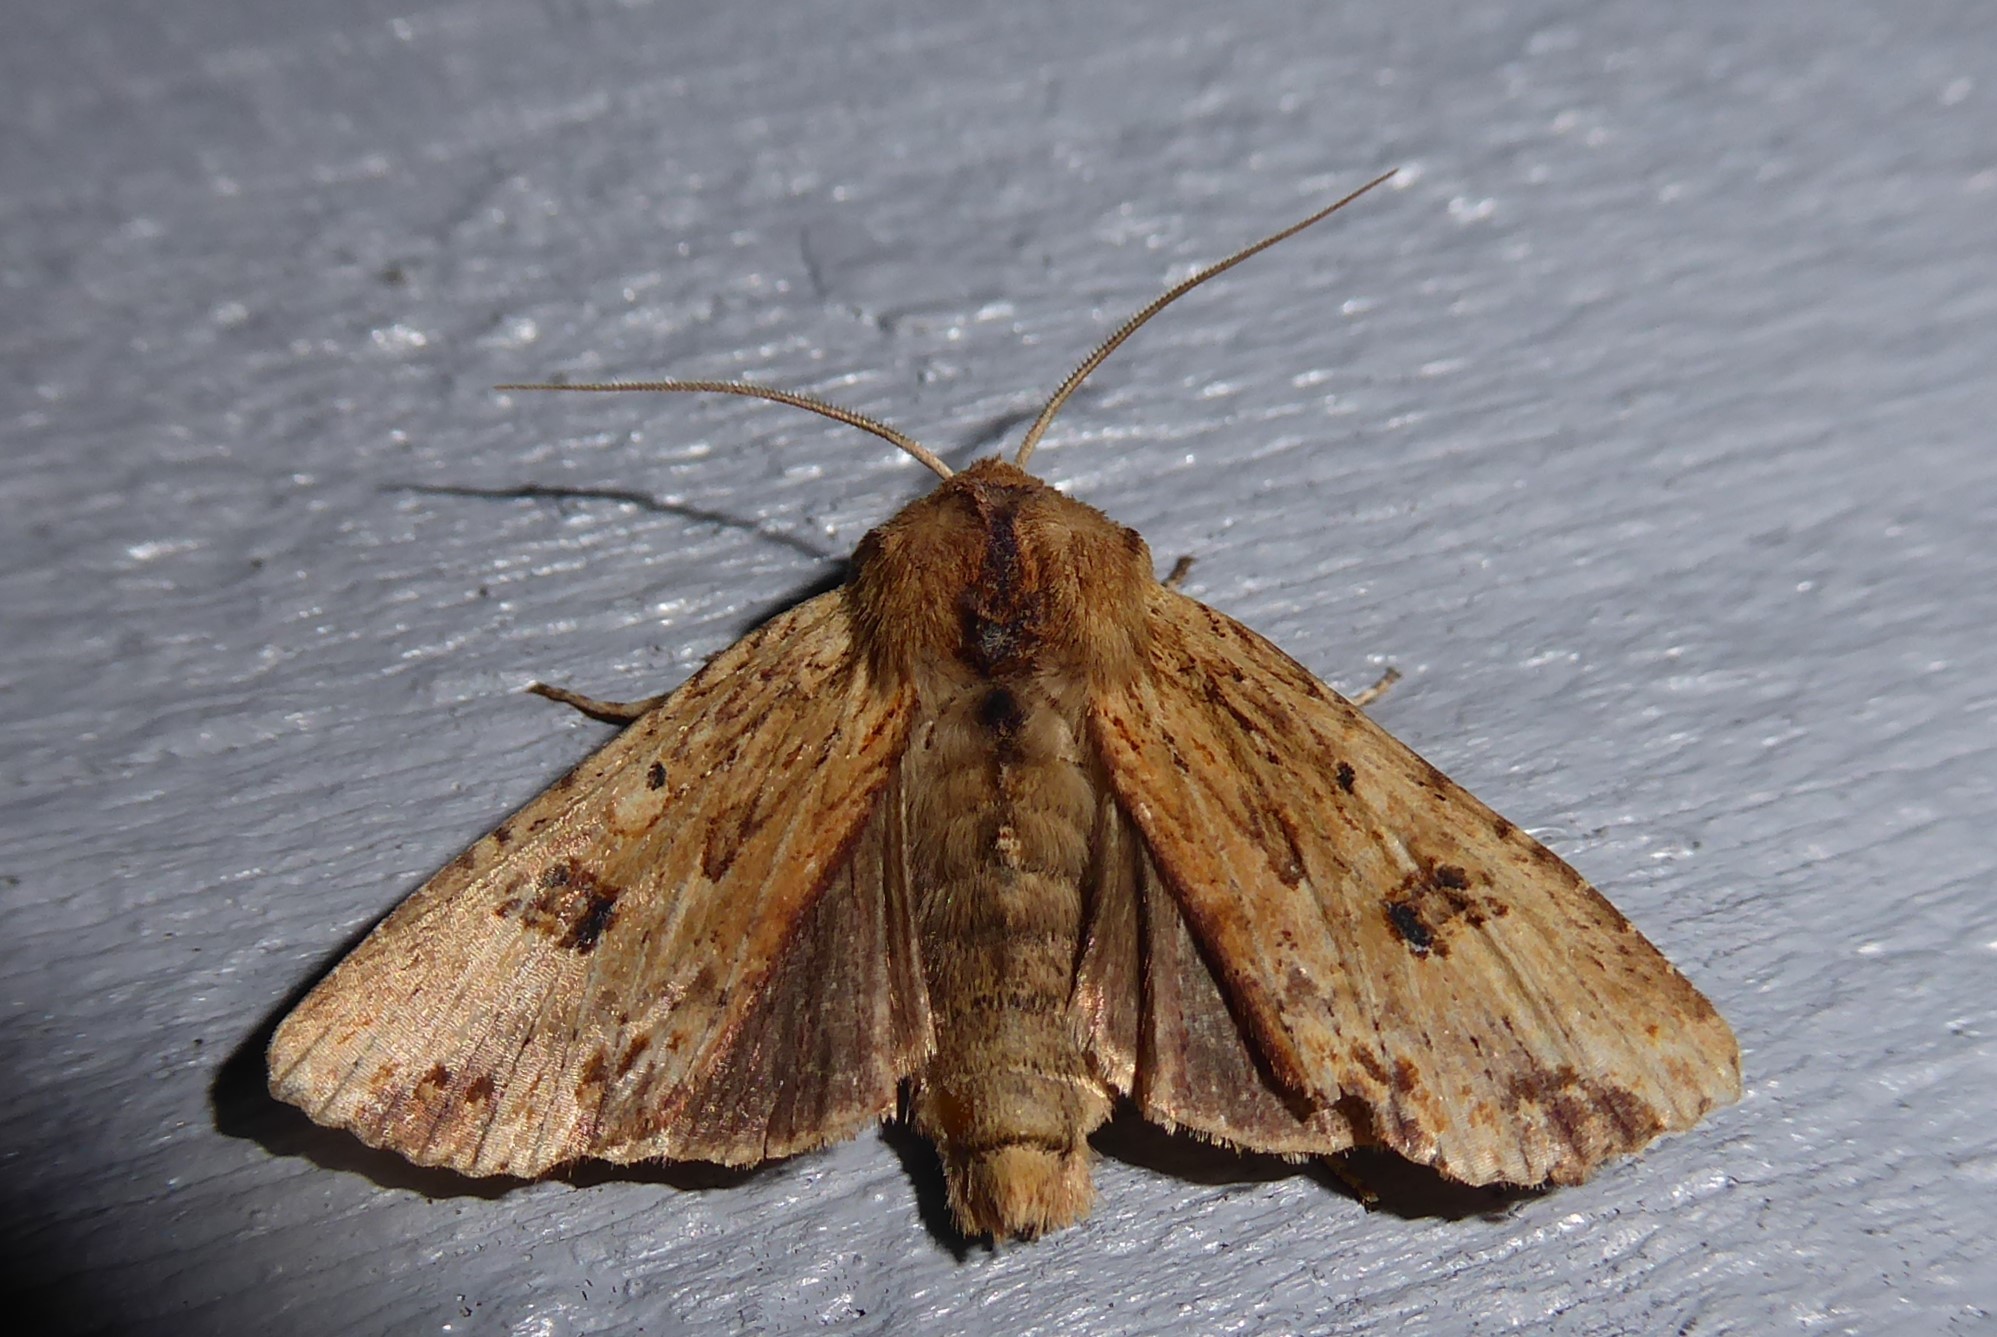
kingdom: Animalia
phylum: Arthropoda
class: Insecta
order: Lepidoptera
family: Noctuidae
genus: Ichneutica
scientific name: Ichneutica
